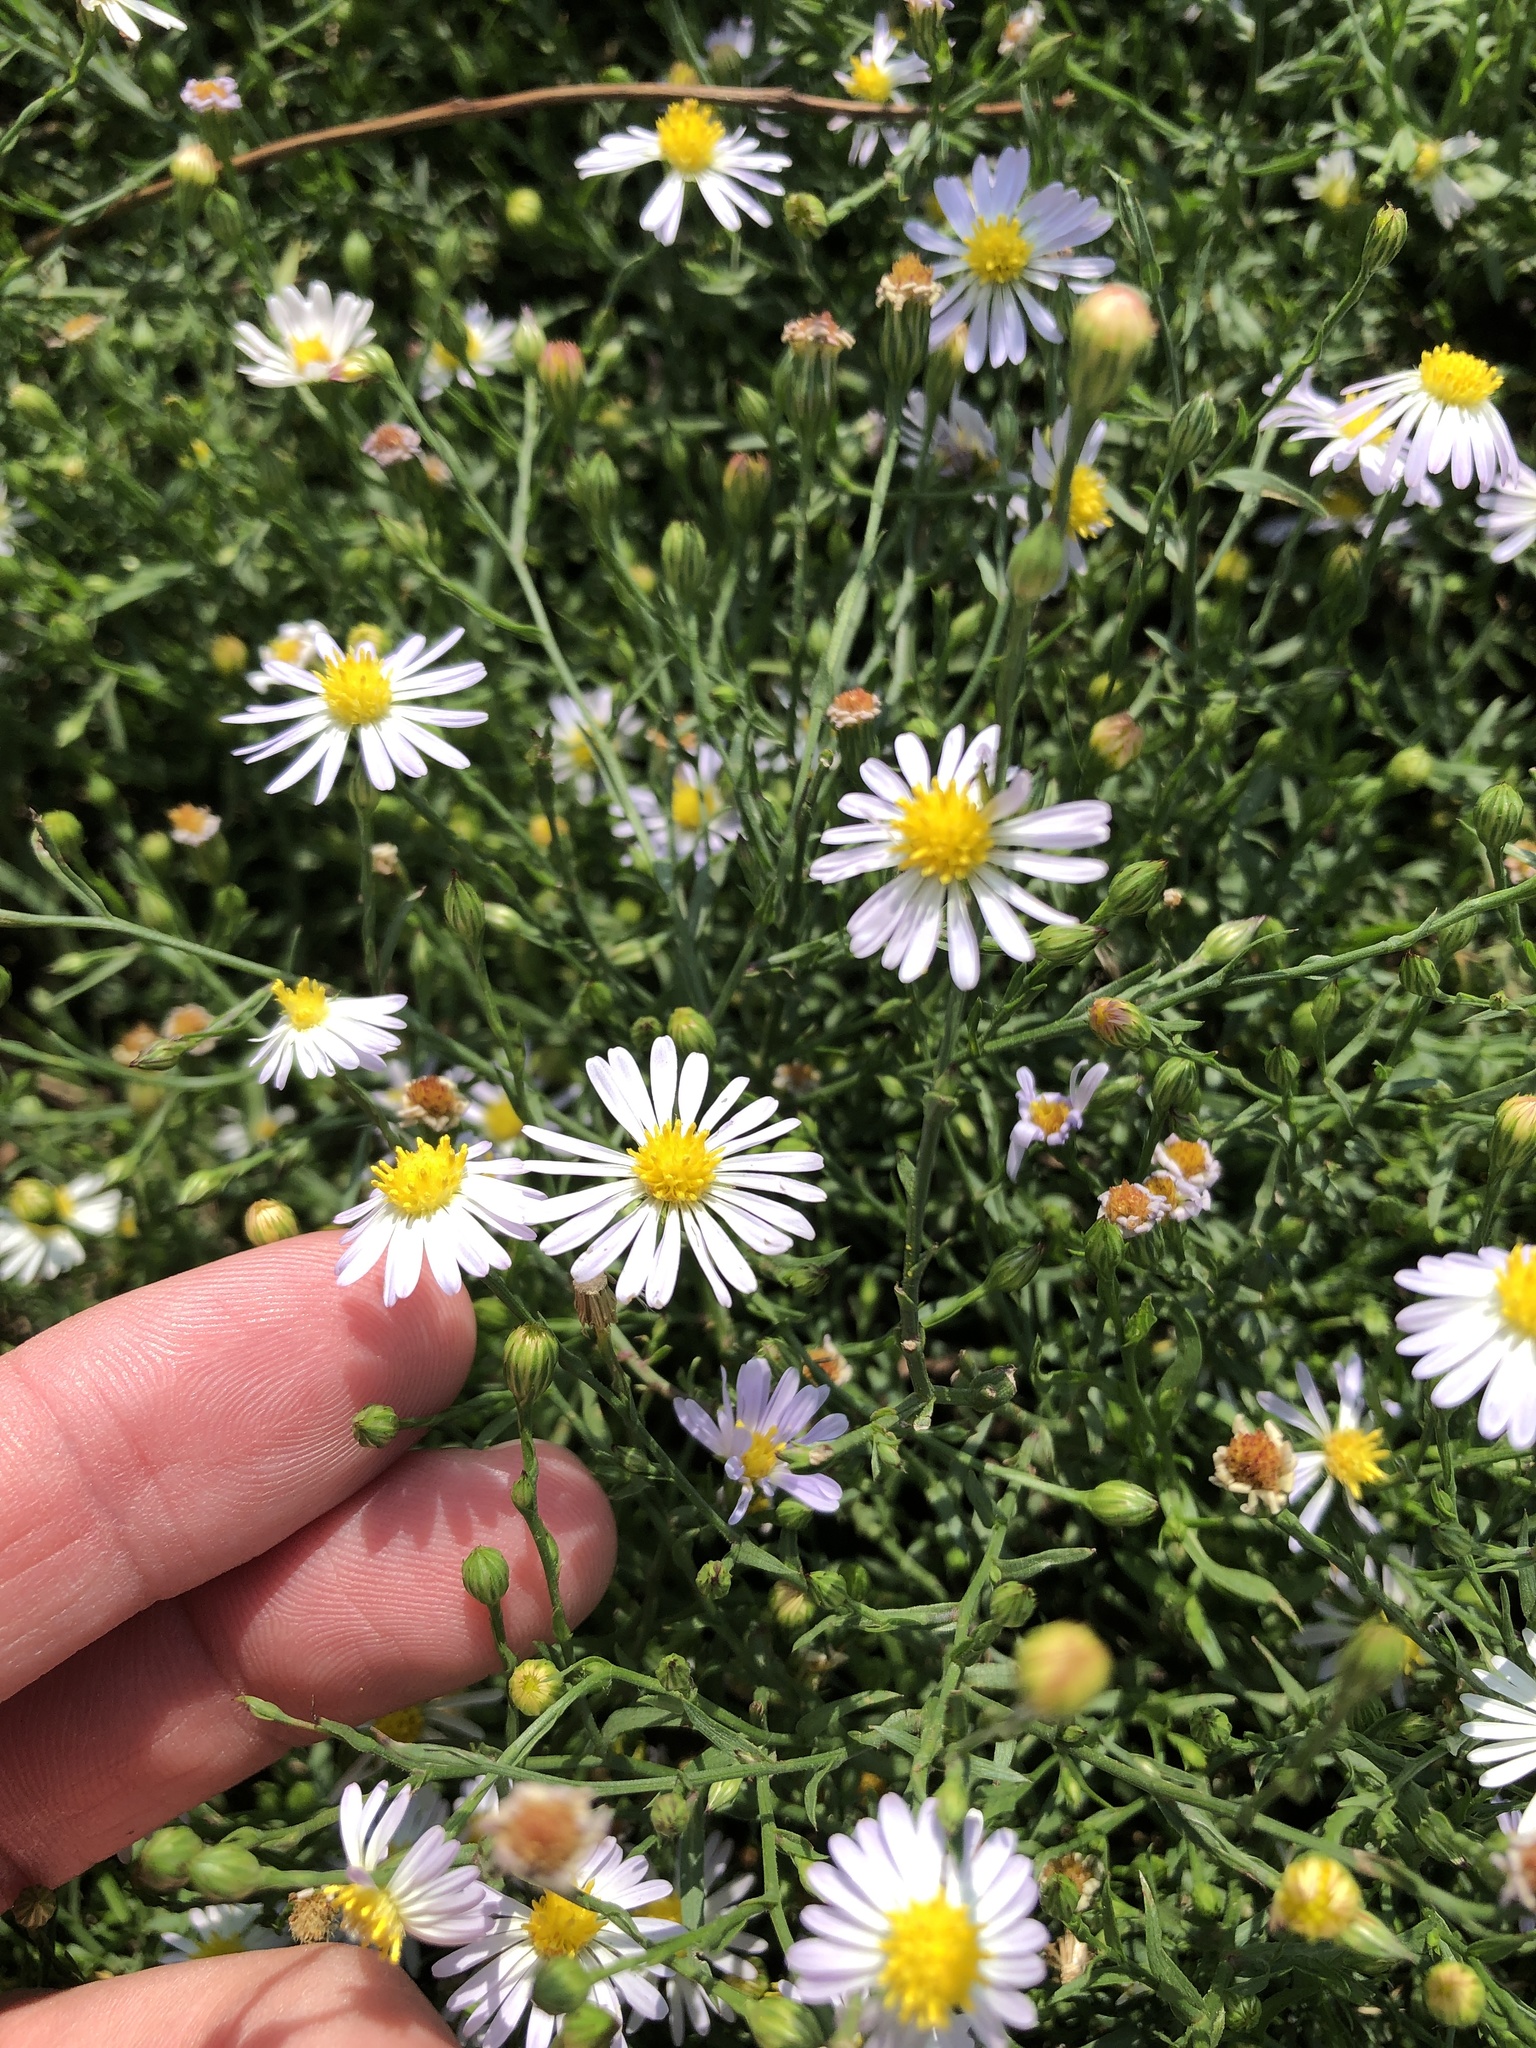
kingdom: Plantae
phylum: Tracheophyta
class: Magnoliopsida
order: Asterales
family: Asteraceae
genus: Symphyotrichum
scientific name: Symphyotrichum divaricatum
